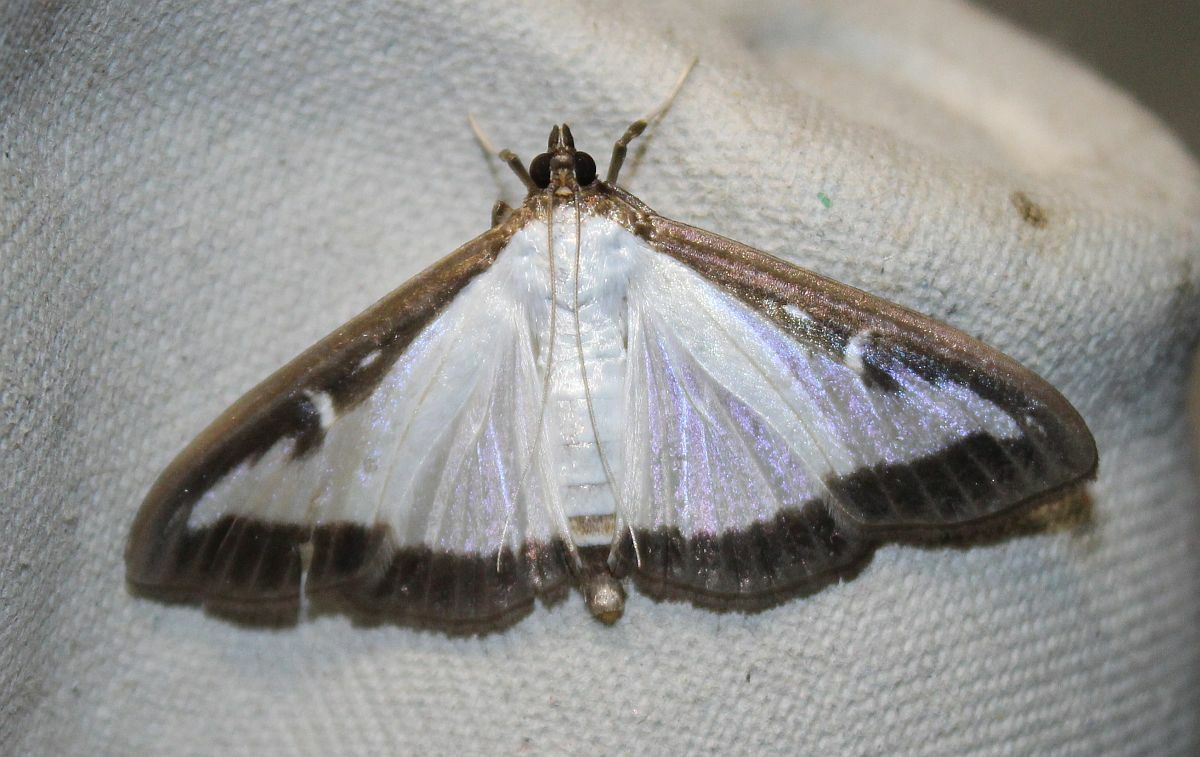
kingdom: Animalia
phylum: Arthropoda
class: Insecta
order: Lepidoptera
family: Crambidae
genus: Cydalima
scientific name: Cydalima perspectalis
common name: Box tree moth
